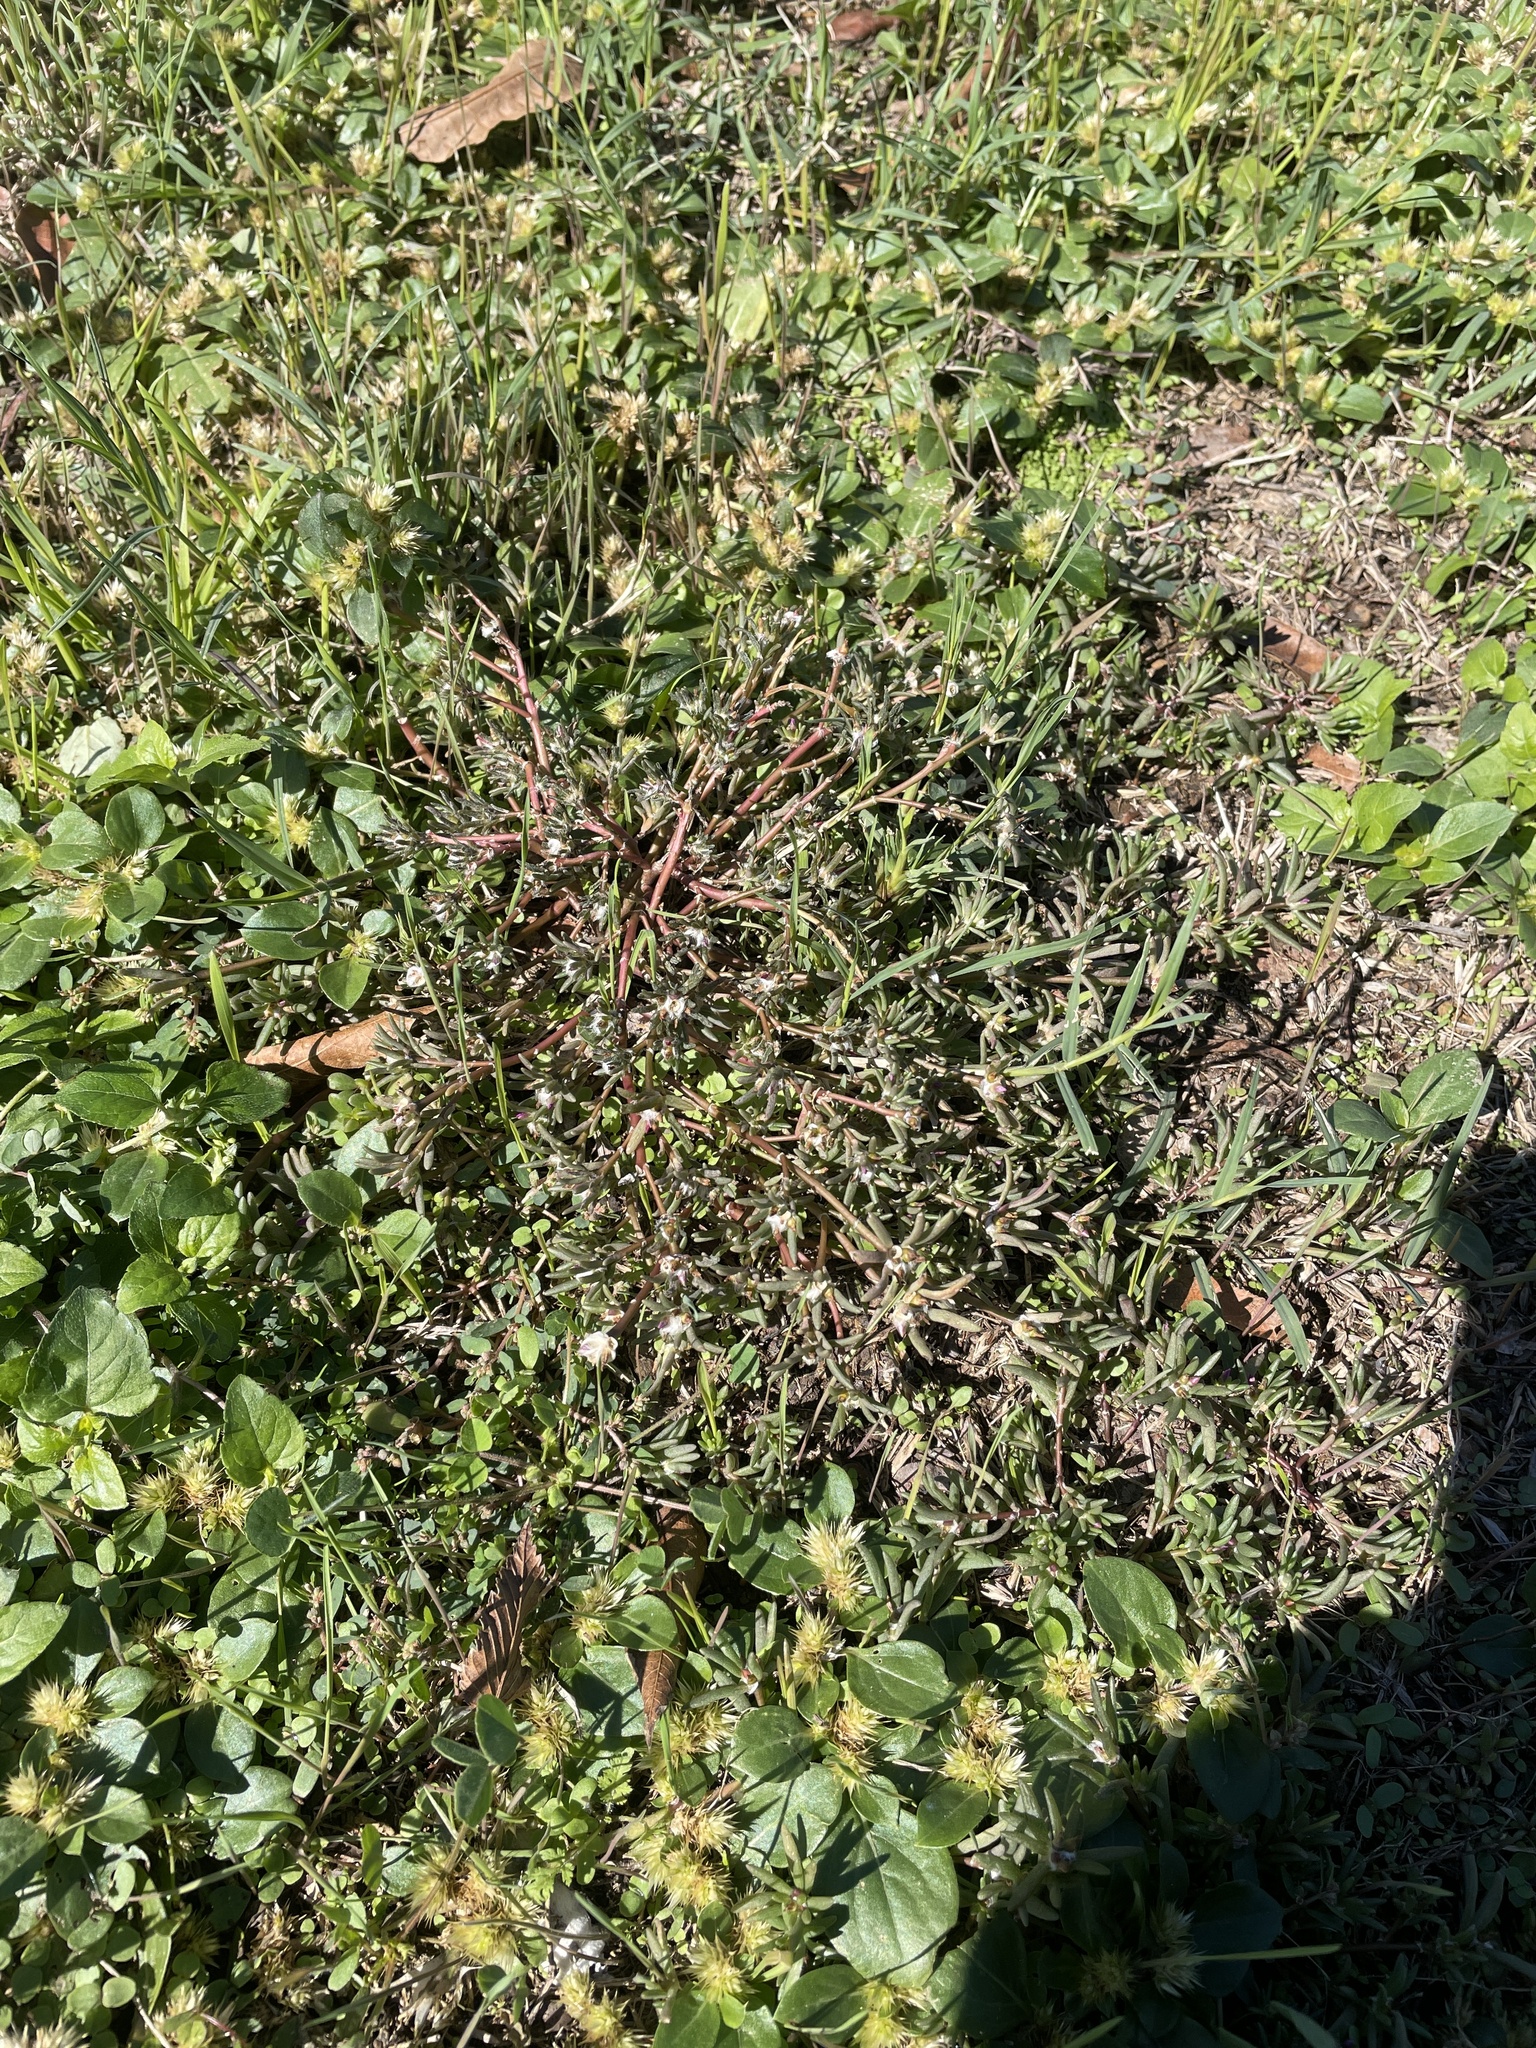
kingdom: Plantae
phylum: Tracheophyta
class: Magnoliopsida
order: Caryophyllales
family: Portulacaceae
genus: Portulaca
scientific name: Portulaca pilosa
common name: Kiss me quick
